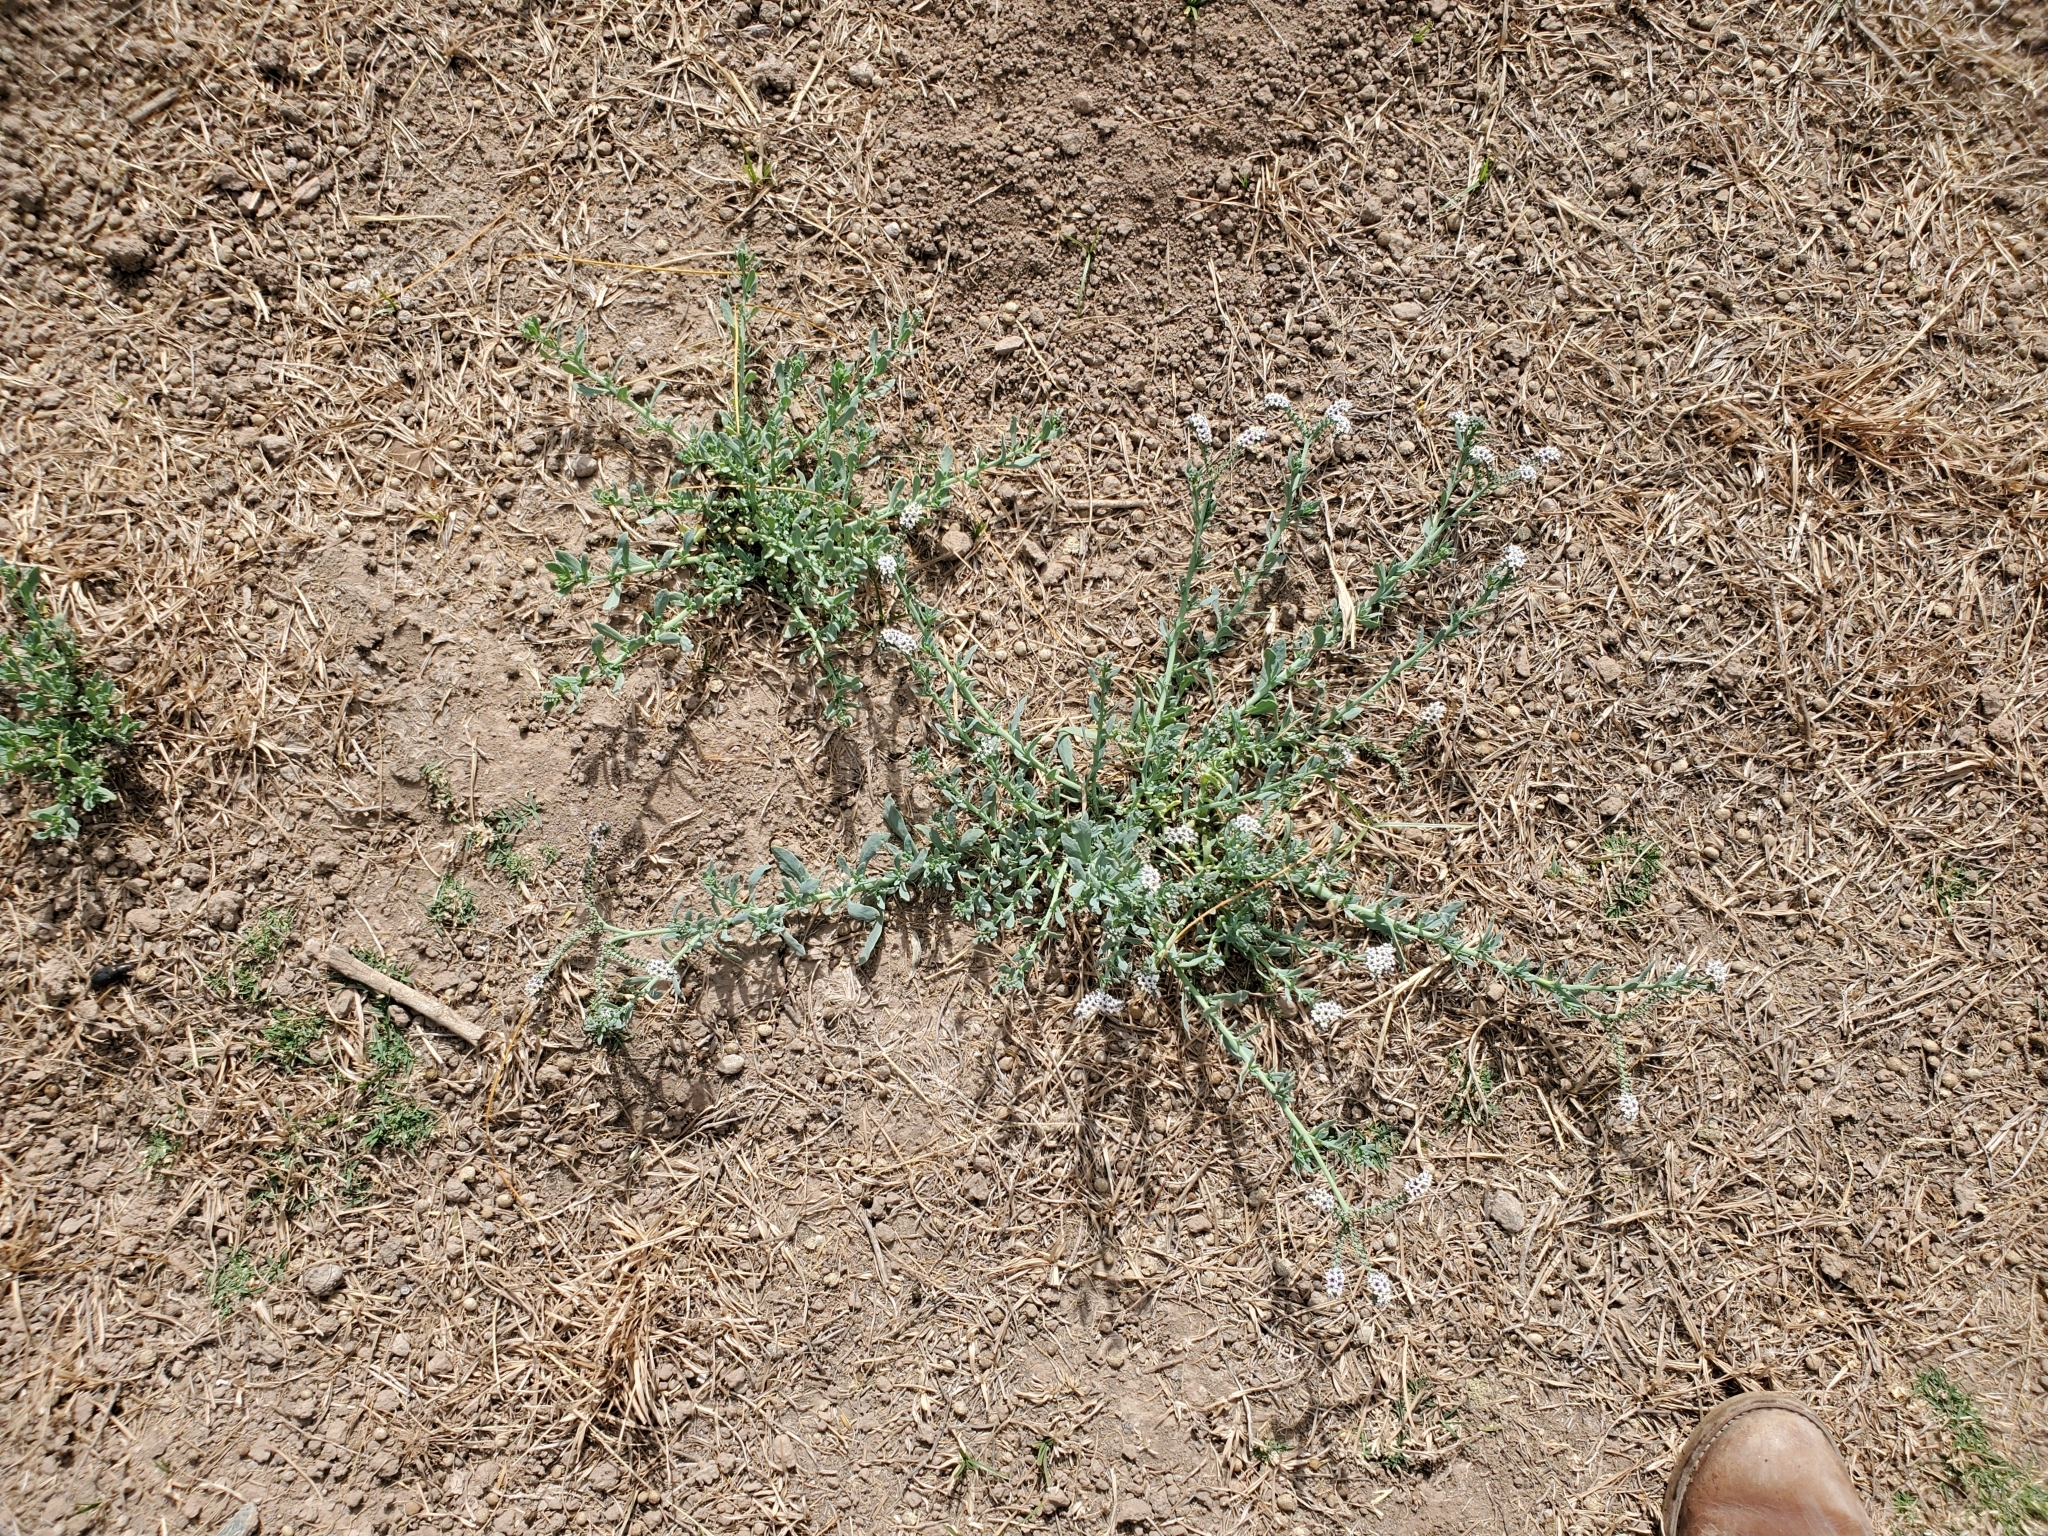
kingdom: Plantae
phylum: Tracheophyta
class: Magnoliopsida
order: Boraginales
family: Heliotropiaceae
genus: Heliotropium
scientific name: Heliotropium curassavicum
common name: Seaside heliotrope
